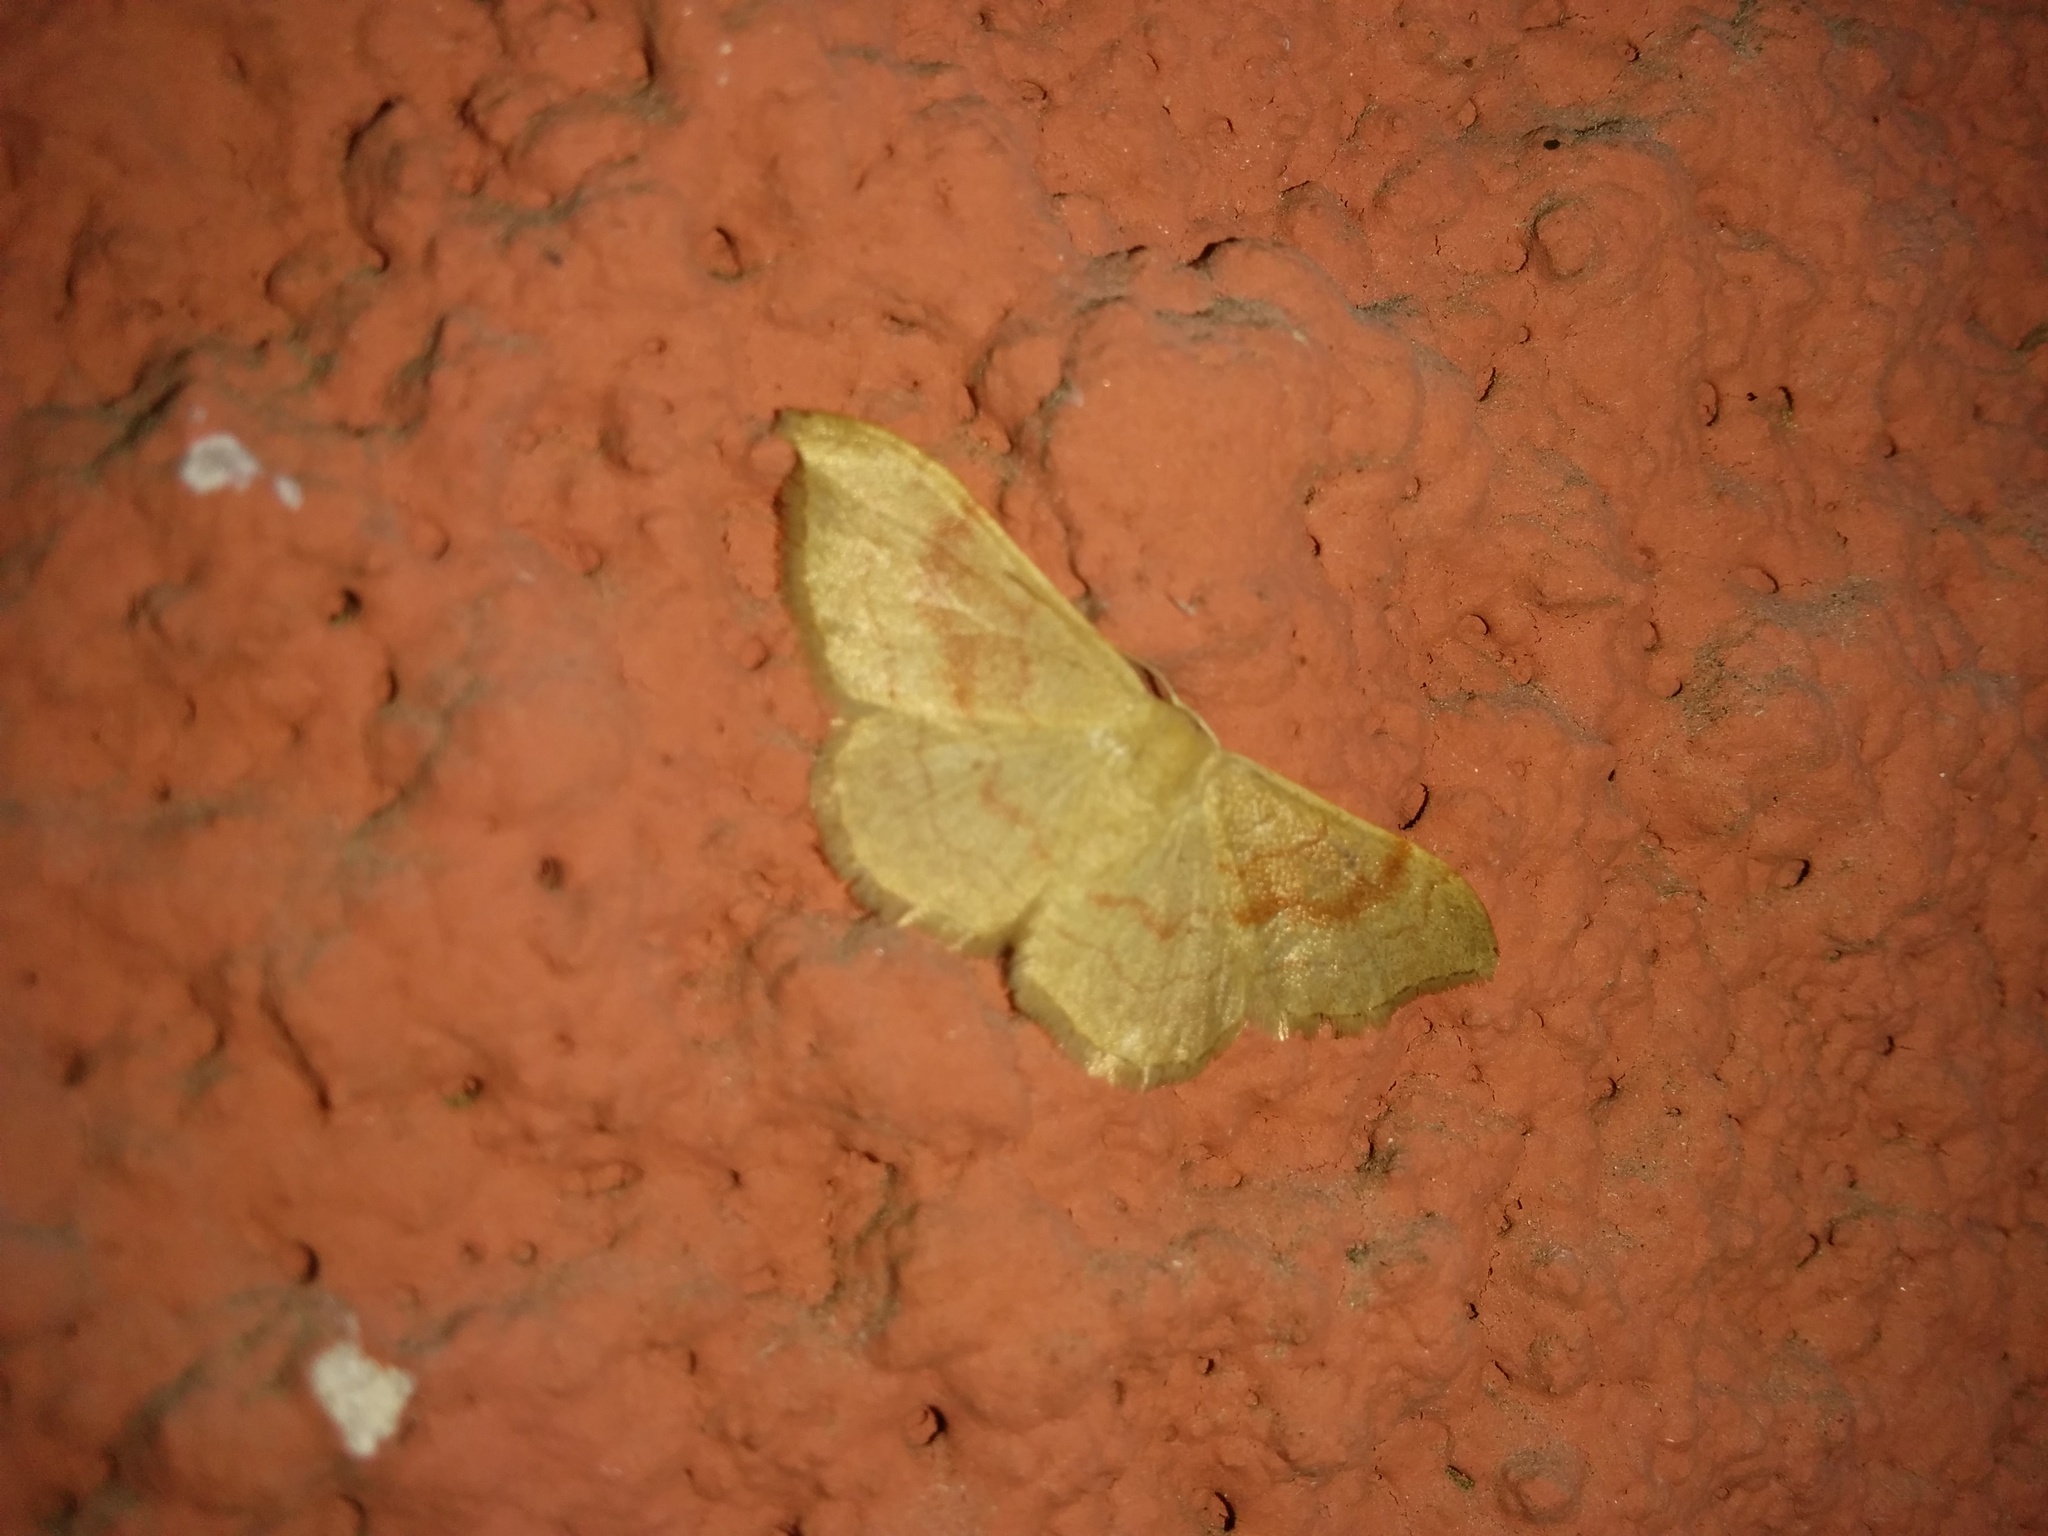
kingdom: Animalia
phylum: Arthropoda
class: Insecta
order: Lepidoptera
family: Geometridae
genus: Idaea
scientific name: Idaea bilinearia
